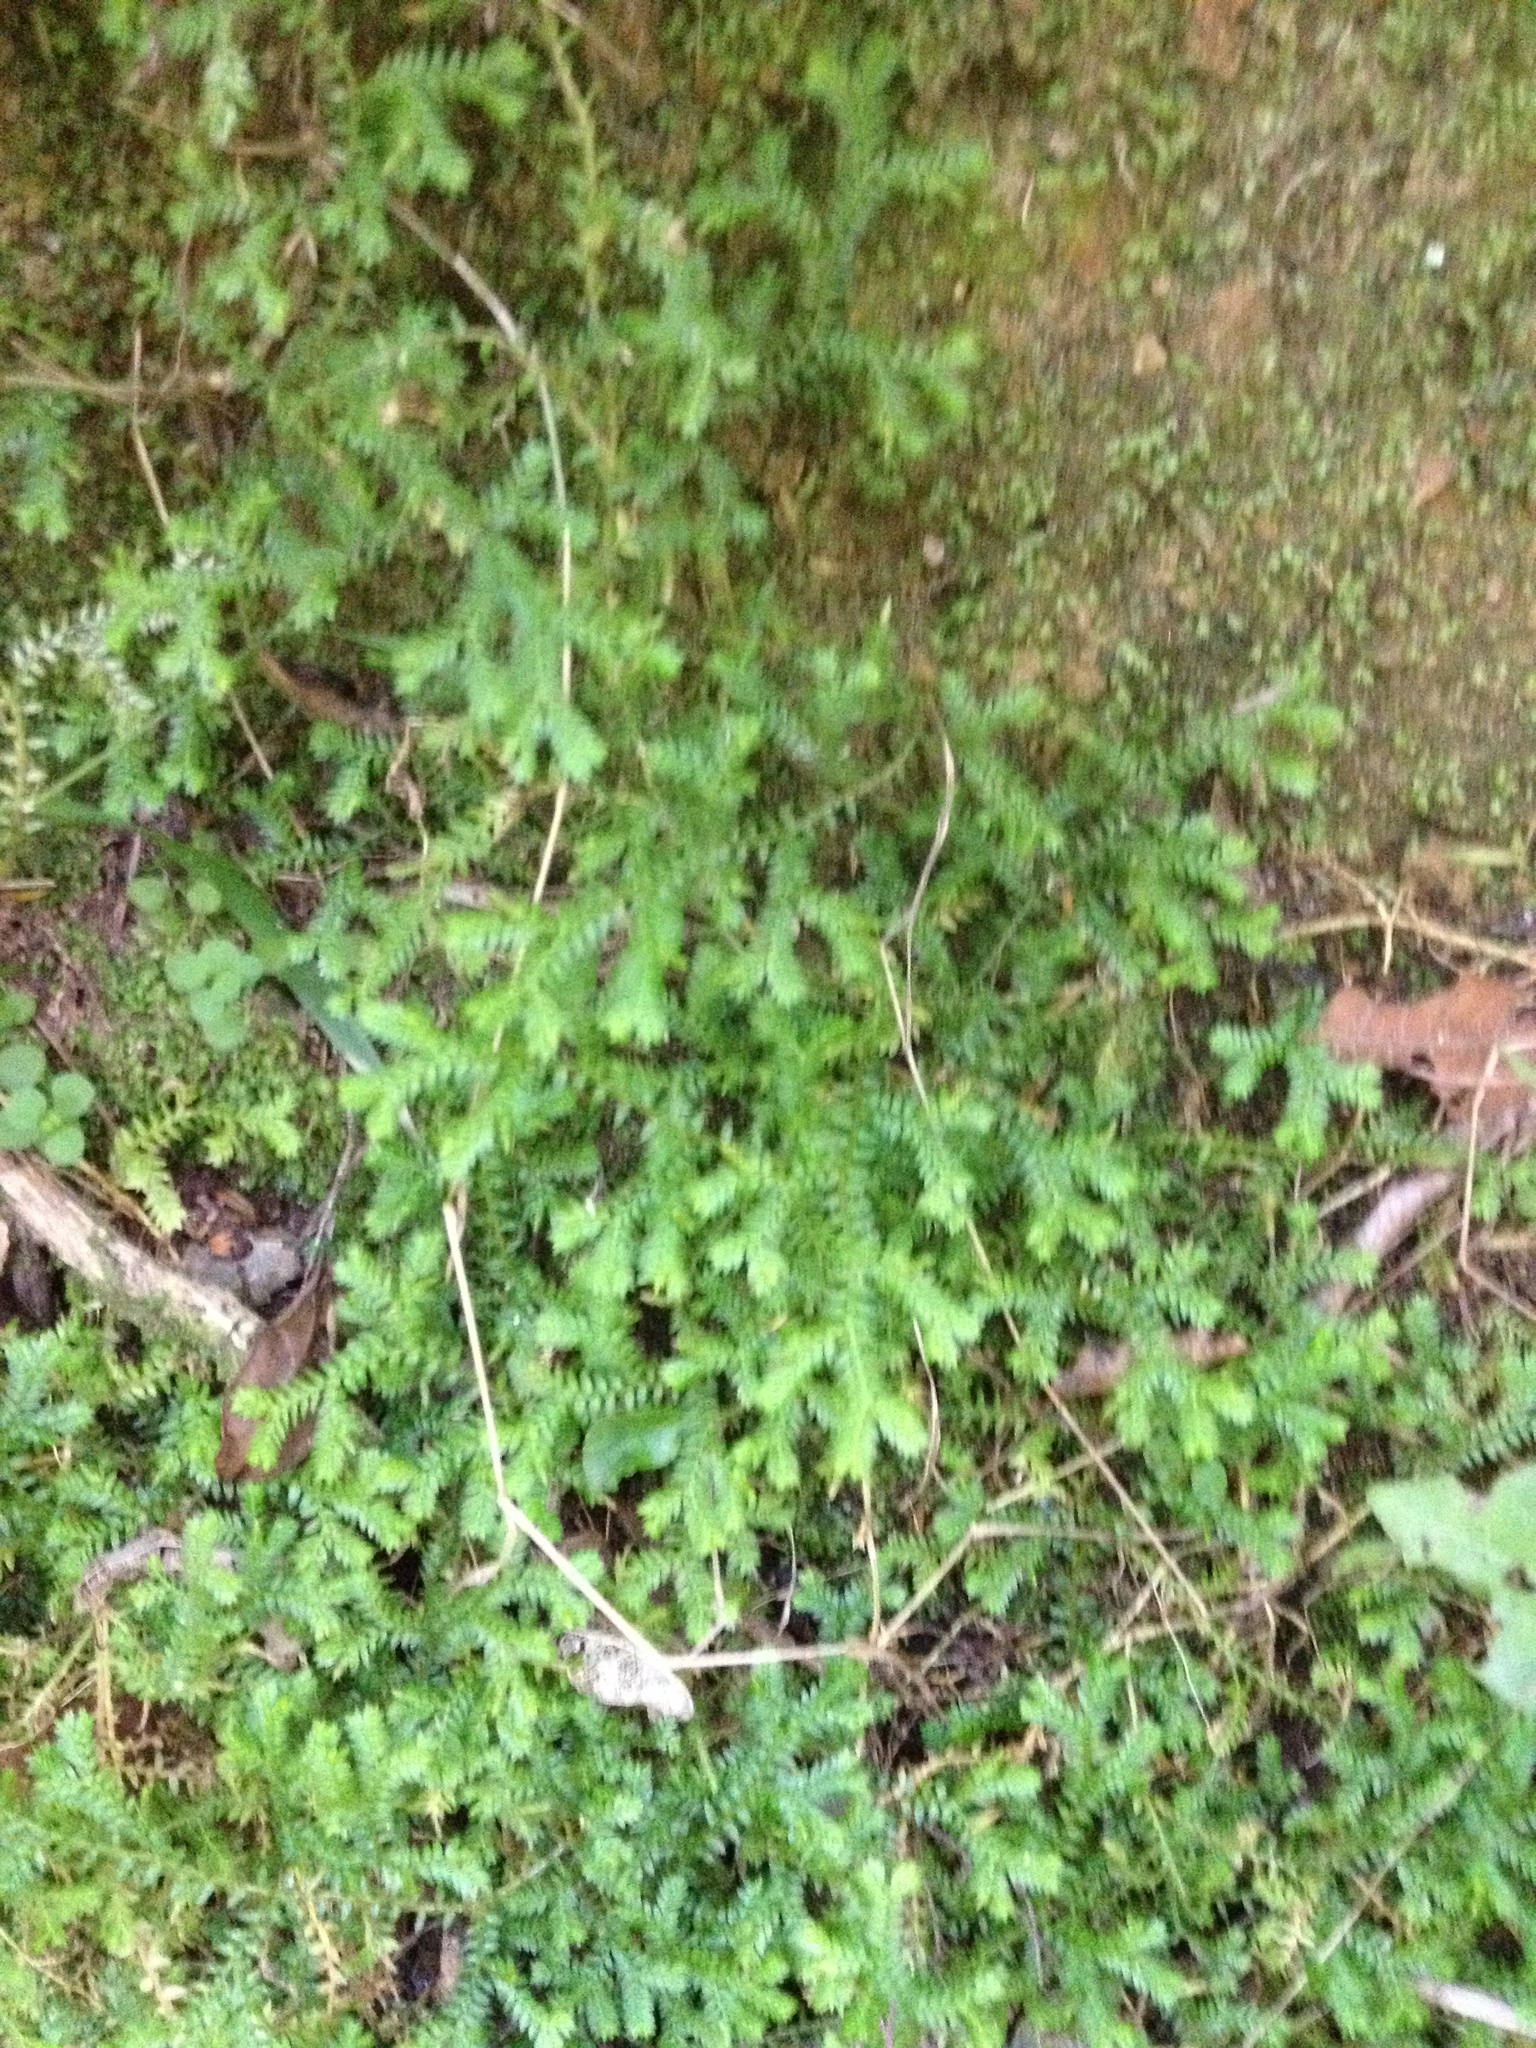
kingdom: Plantae
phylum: Tracheophyta
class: Lycopodiopsida
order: Selaginellales
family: Selaginellaceae
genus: Selaginella
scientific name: Selaginella kraussiana
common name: Krauss' spikemoss
